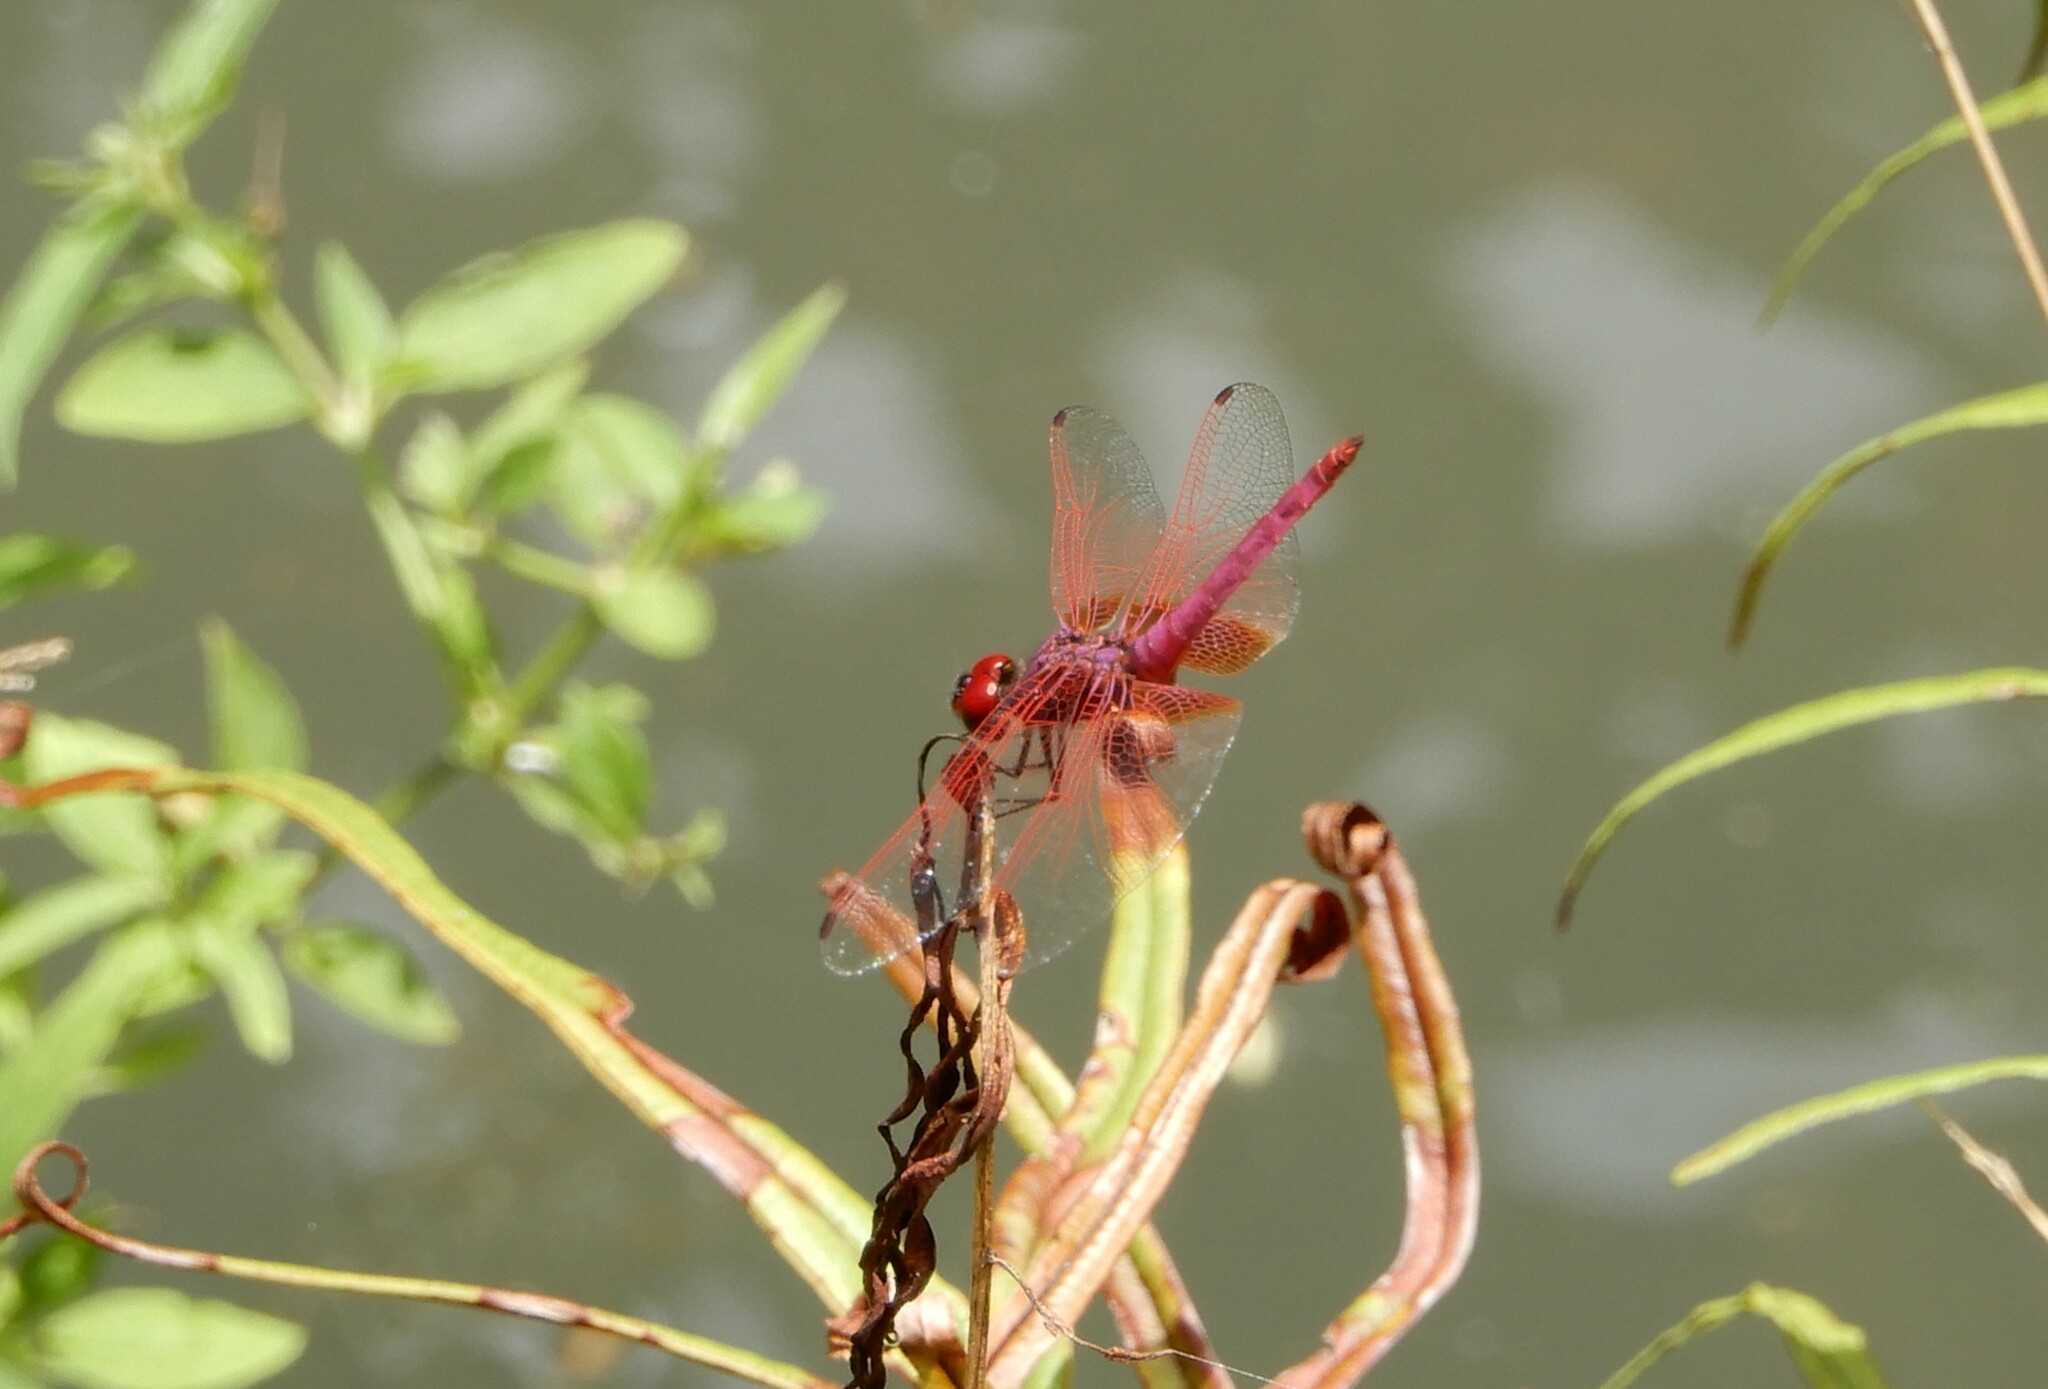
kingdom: Animalia
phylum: Arthropoda
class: Insecta
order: Odonata
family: Libellulidae
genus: Trithemis
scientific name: Trithemis aurora
